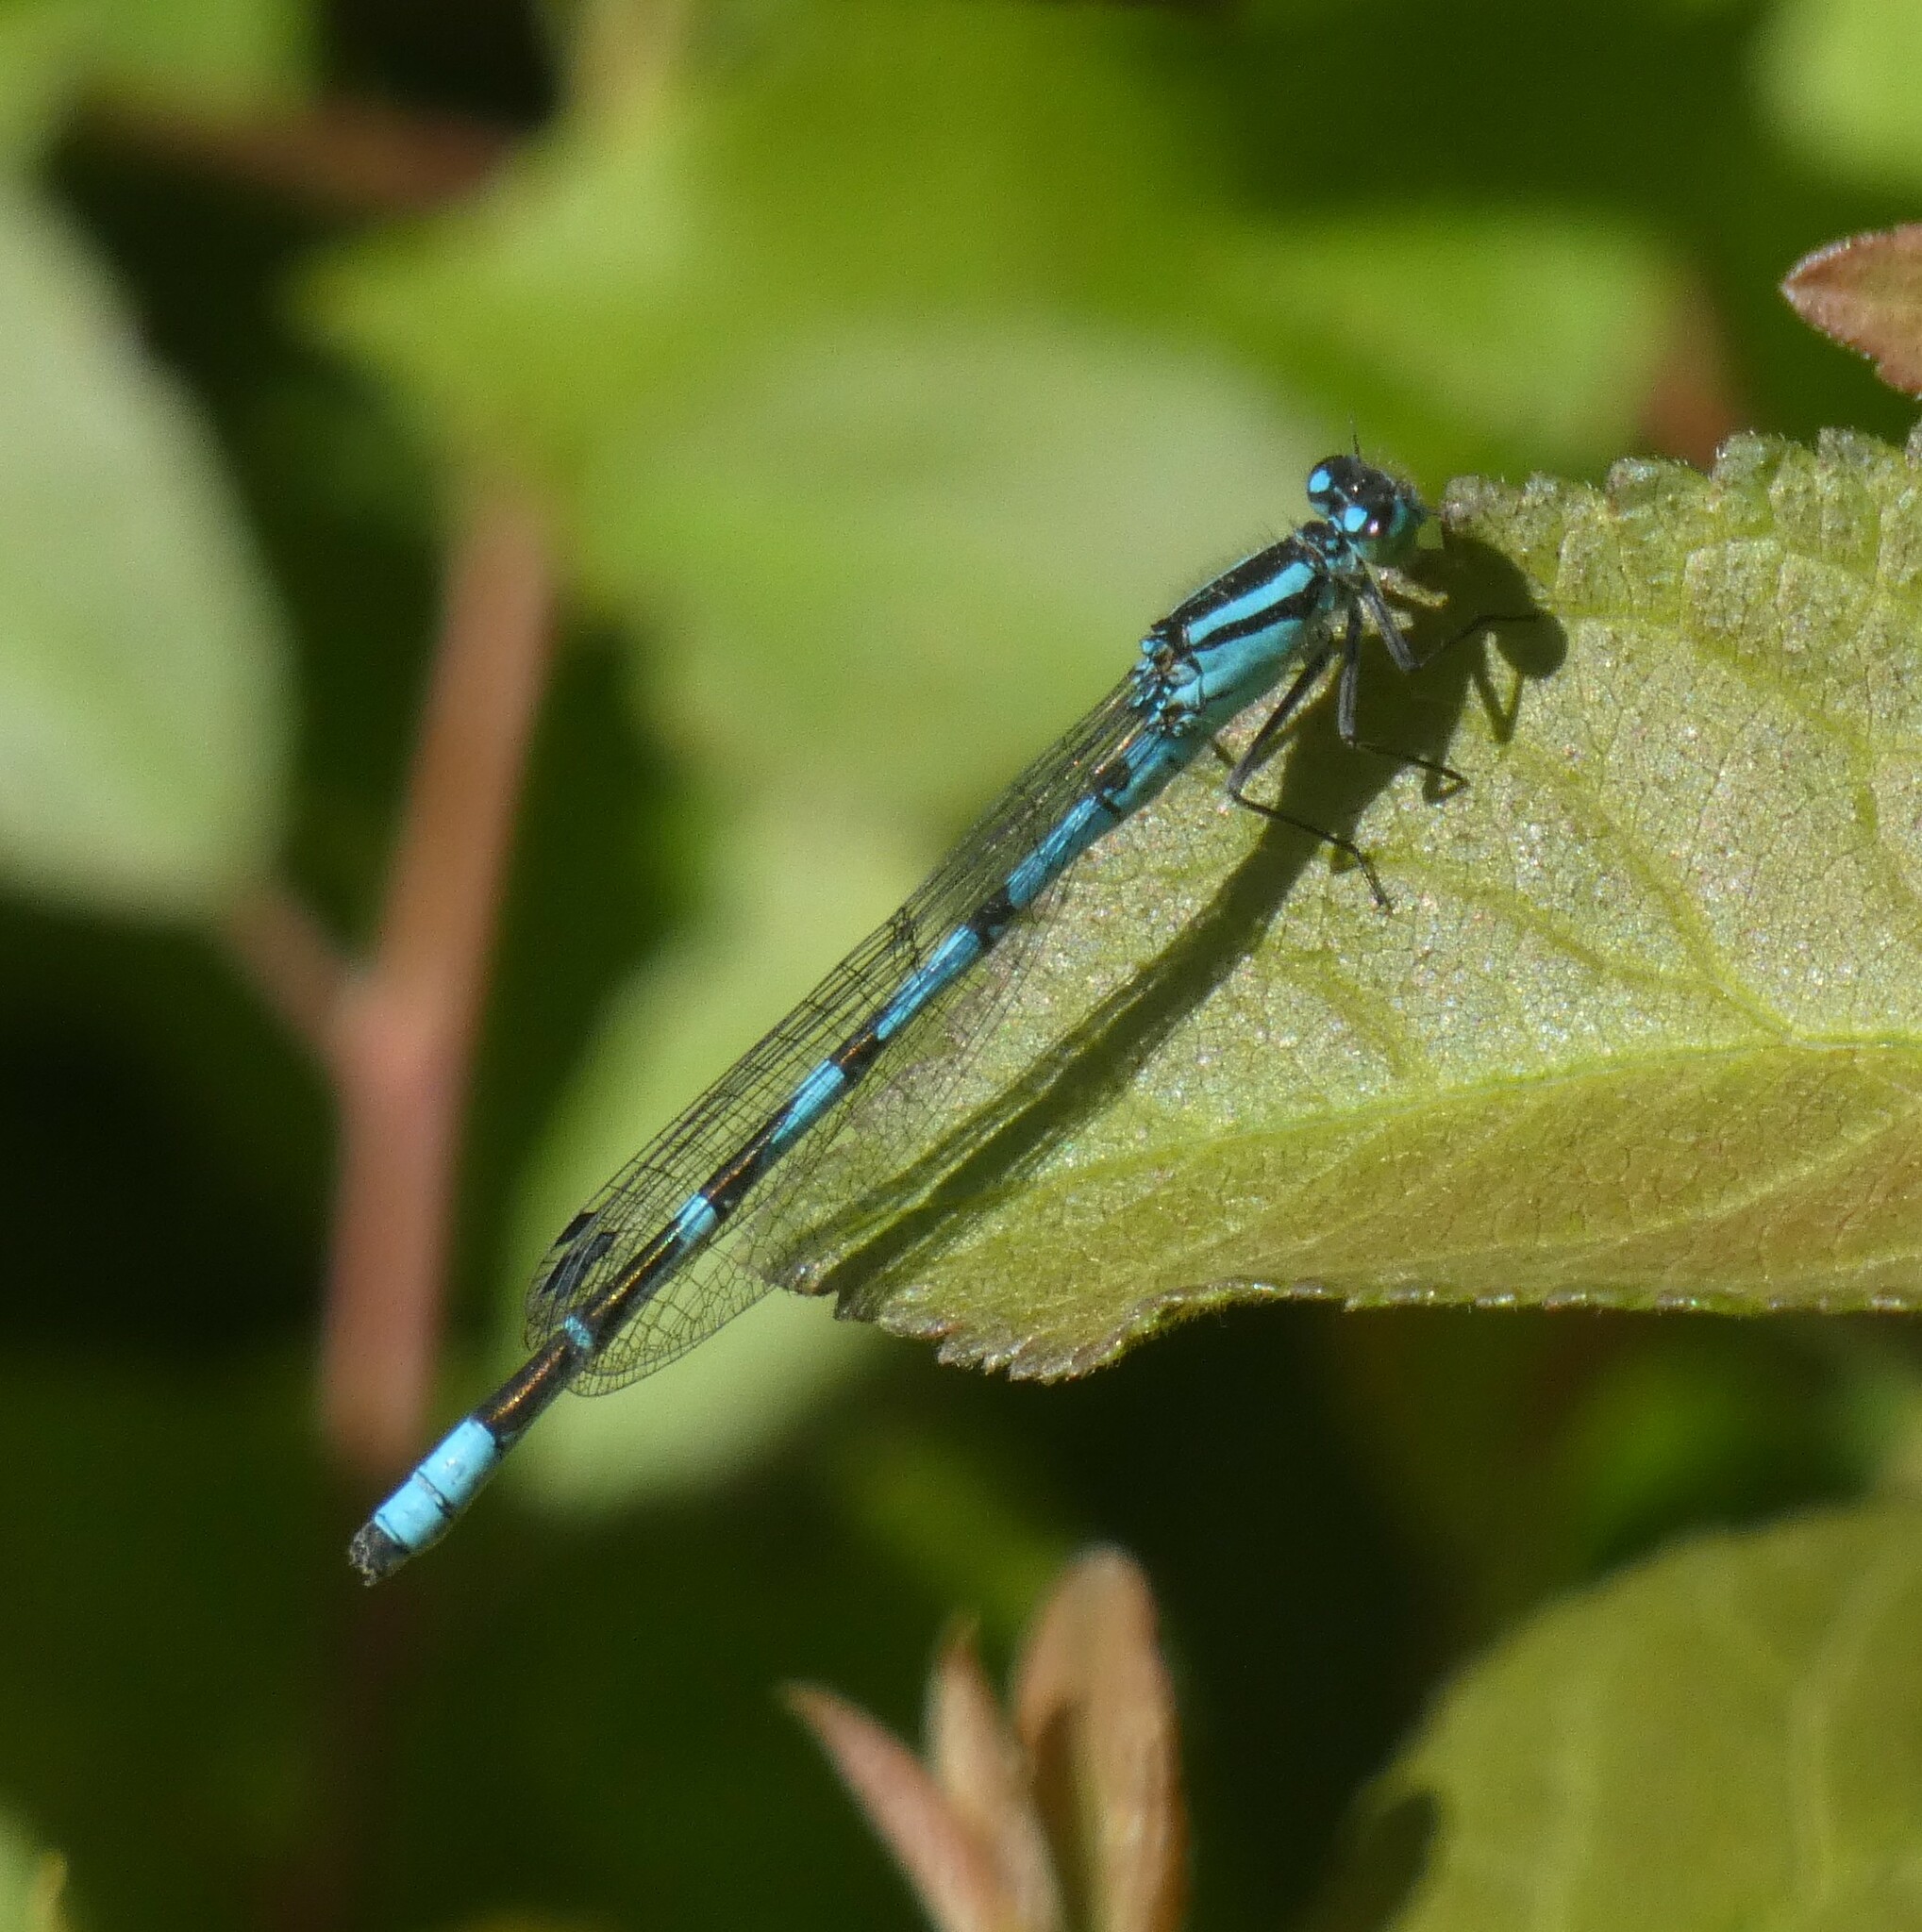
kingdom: Animalia
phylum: Arthropoda
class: Insecta
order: Odonata
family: Coenagrionidae
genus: Enallagma
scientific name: Enallagma cyathigerum
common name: Common blue damselfly
